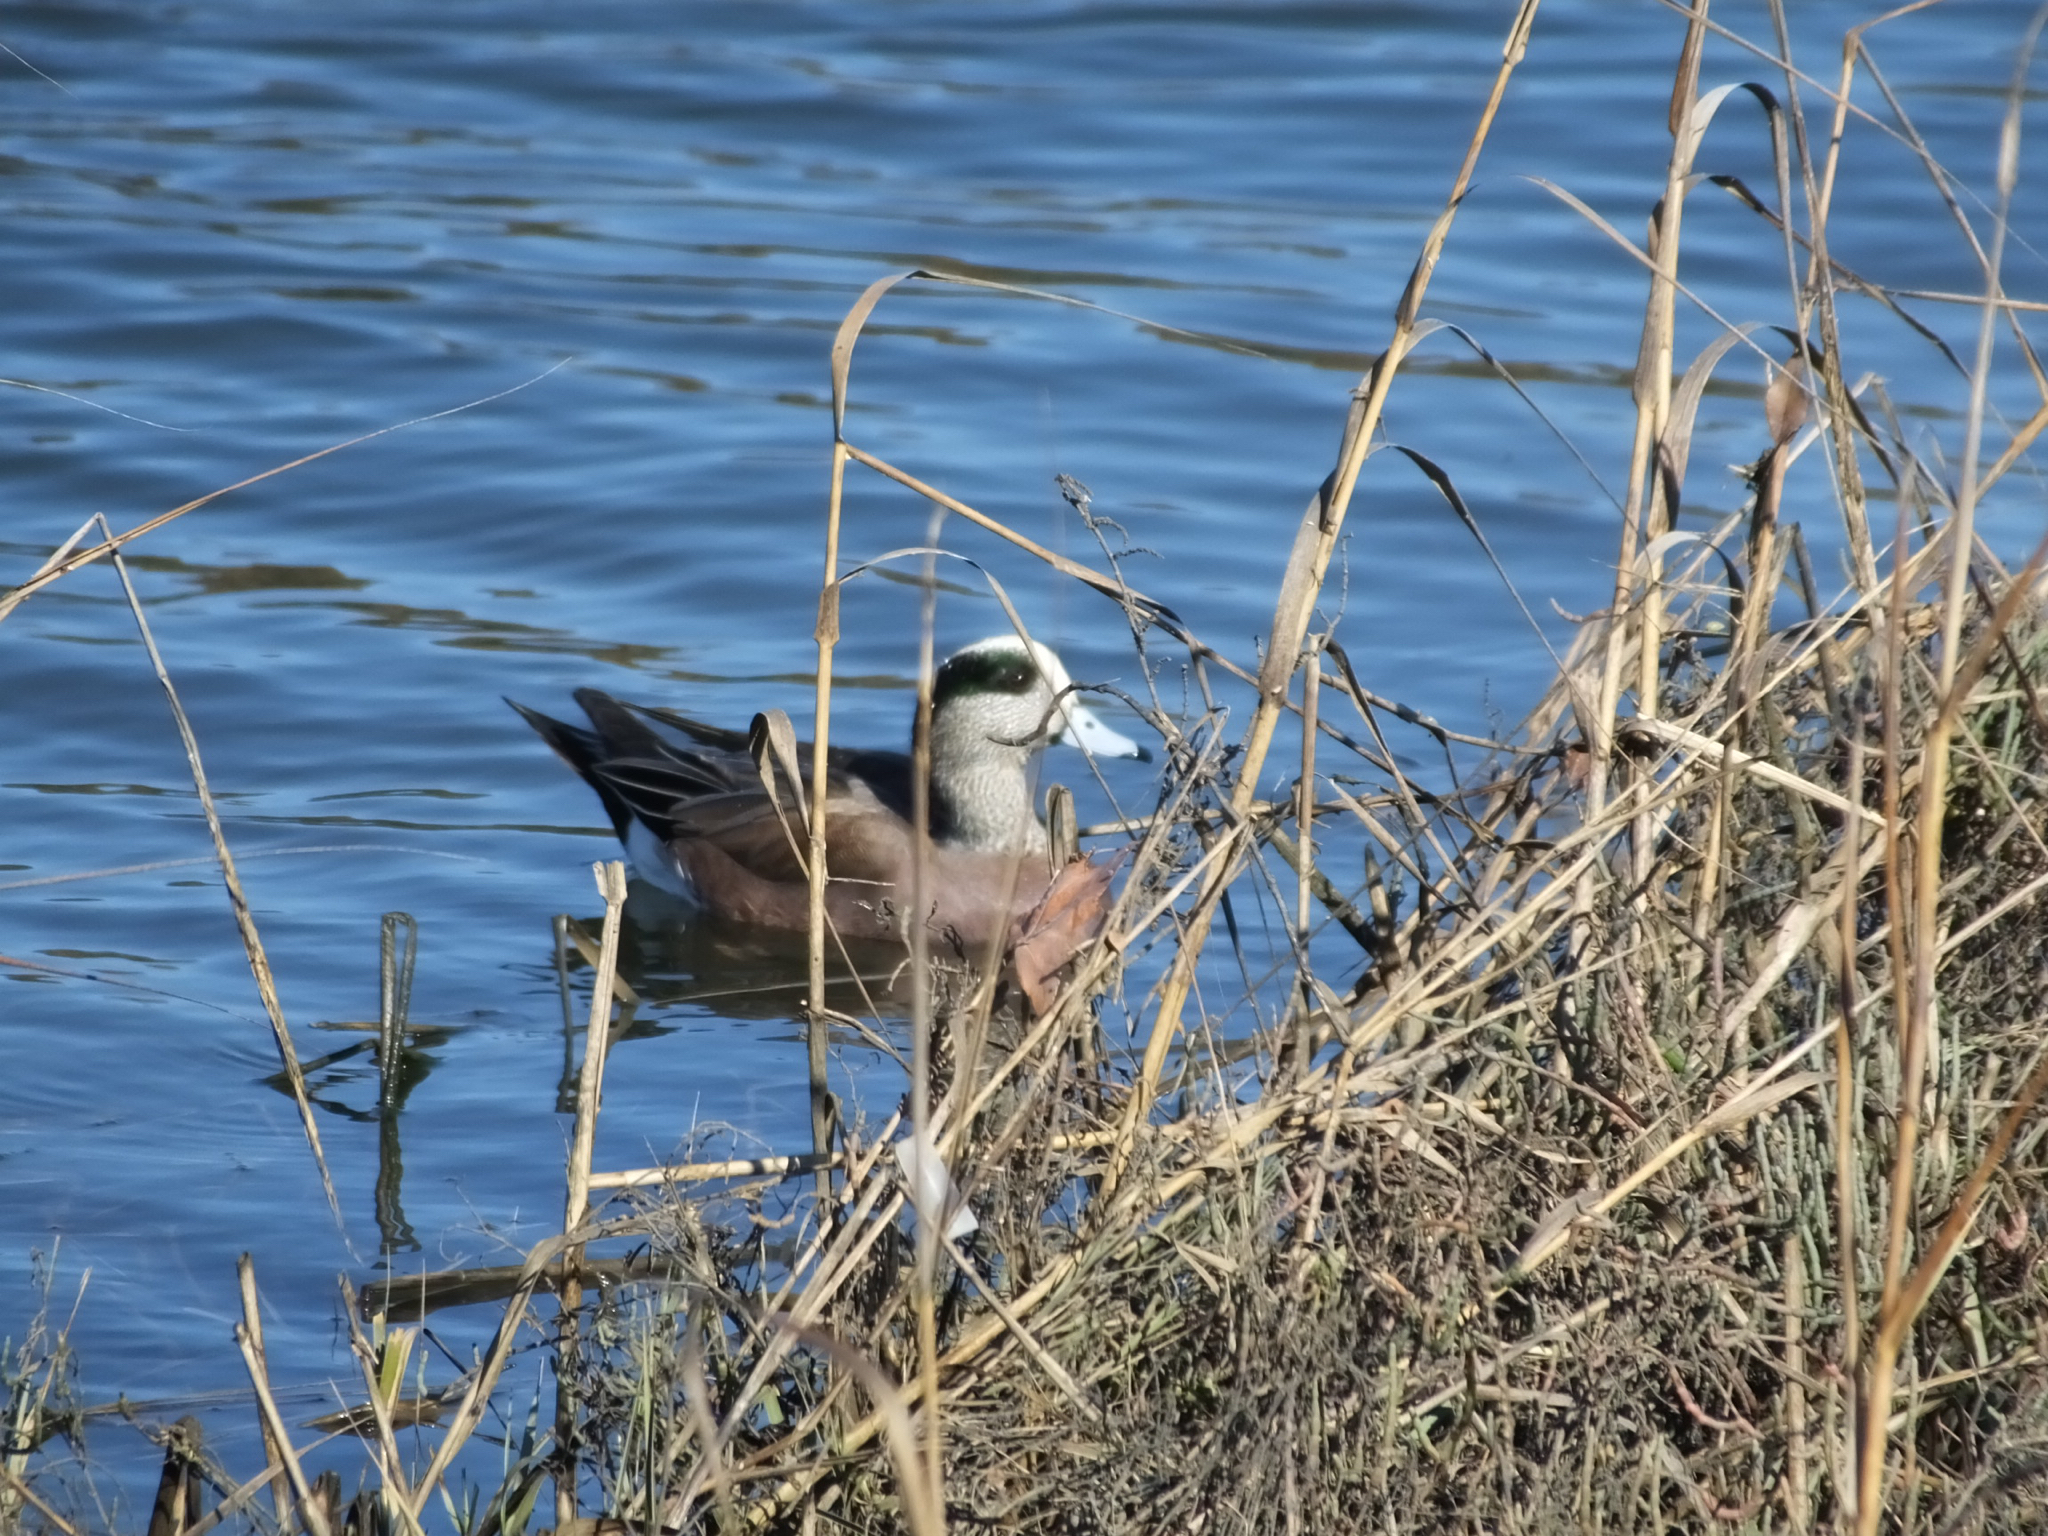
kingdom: Animalia
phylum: Chordata
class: Aves
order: Anseriformes
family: Anatidae
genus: Mareca
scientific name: Mareca americana
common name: American wigeon
